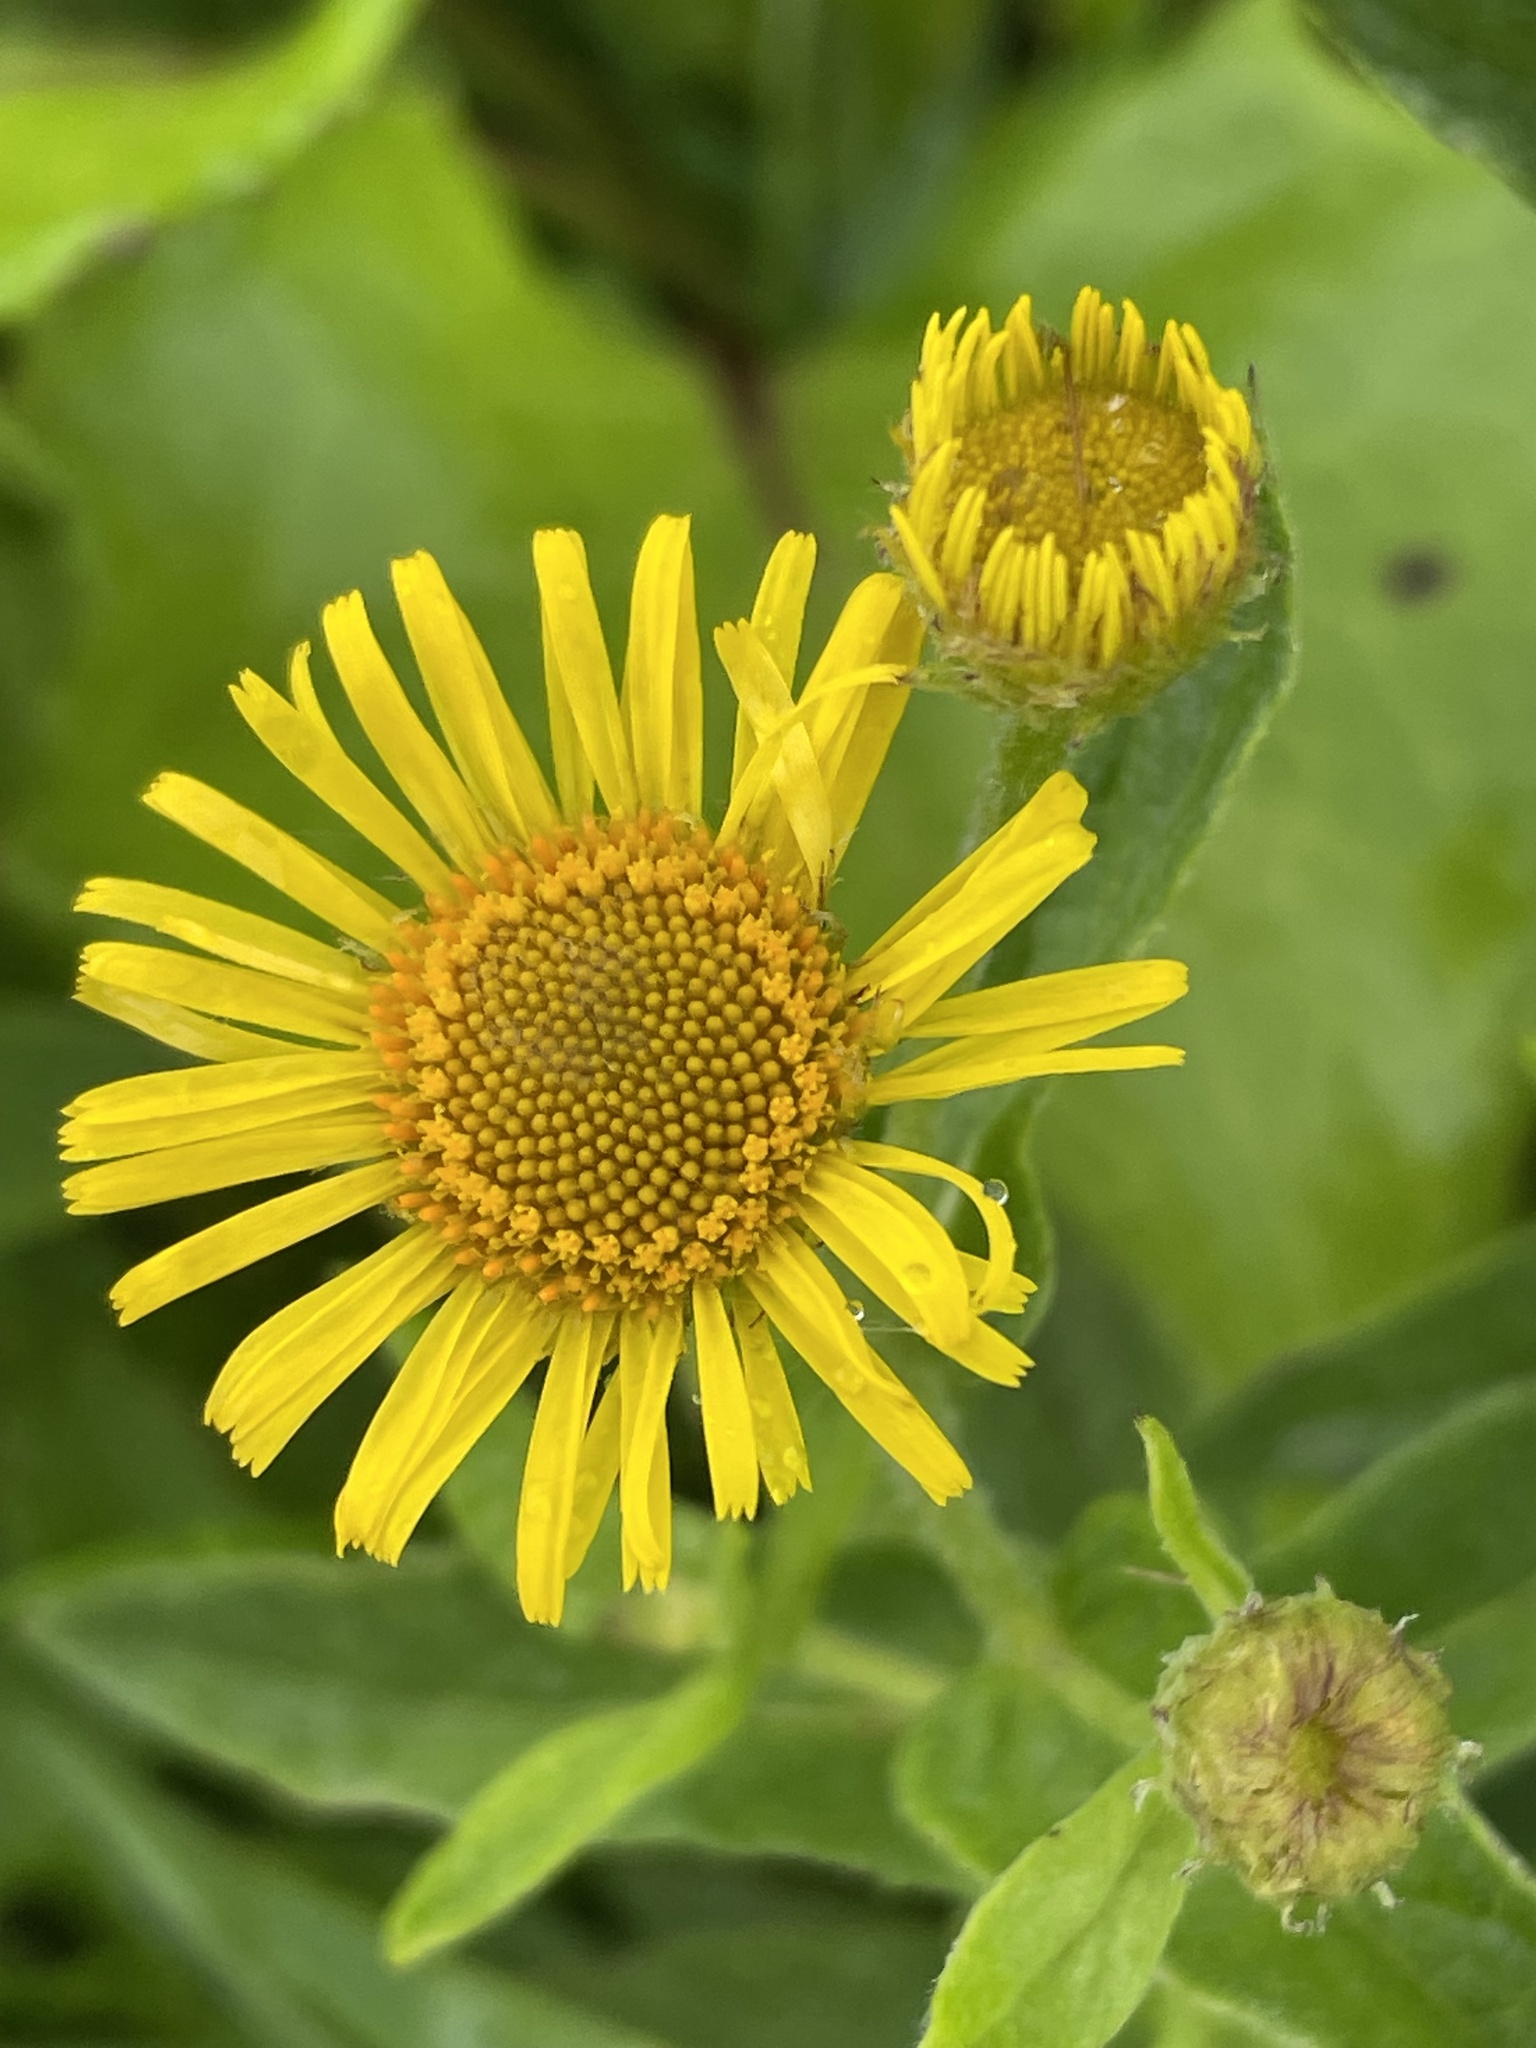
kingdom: Plantae
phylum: Tracheophyta
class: Magnoliopsida
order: Asterales
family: Asteraceae
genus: Pulicaria
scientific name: Pulicaria dysenterica
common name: Common fleabane
